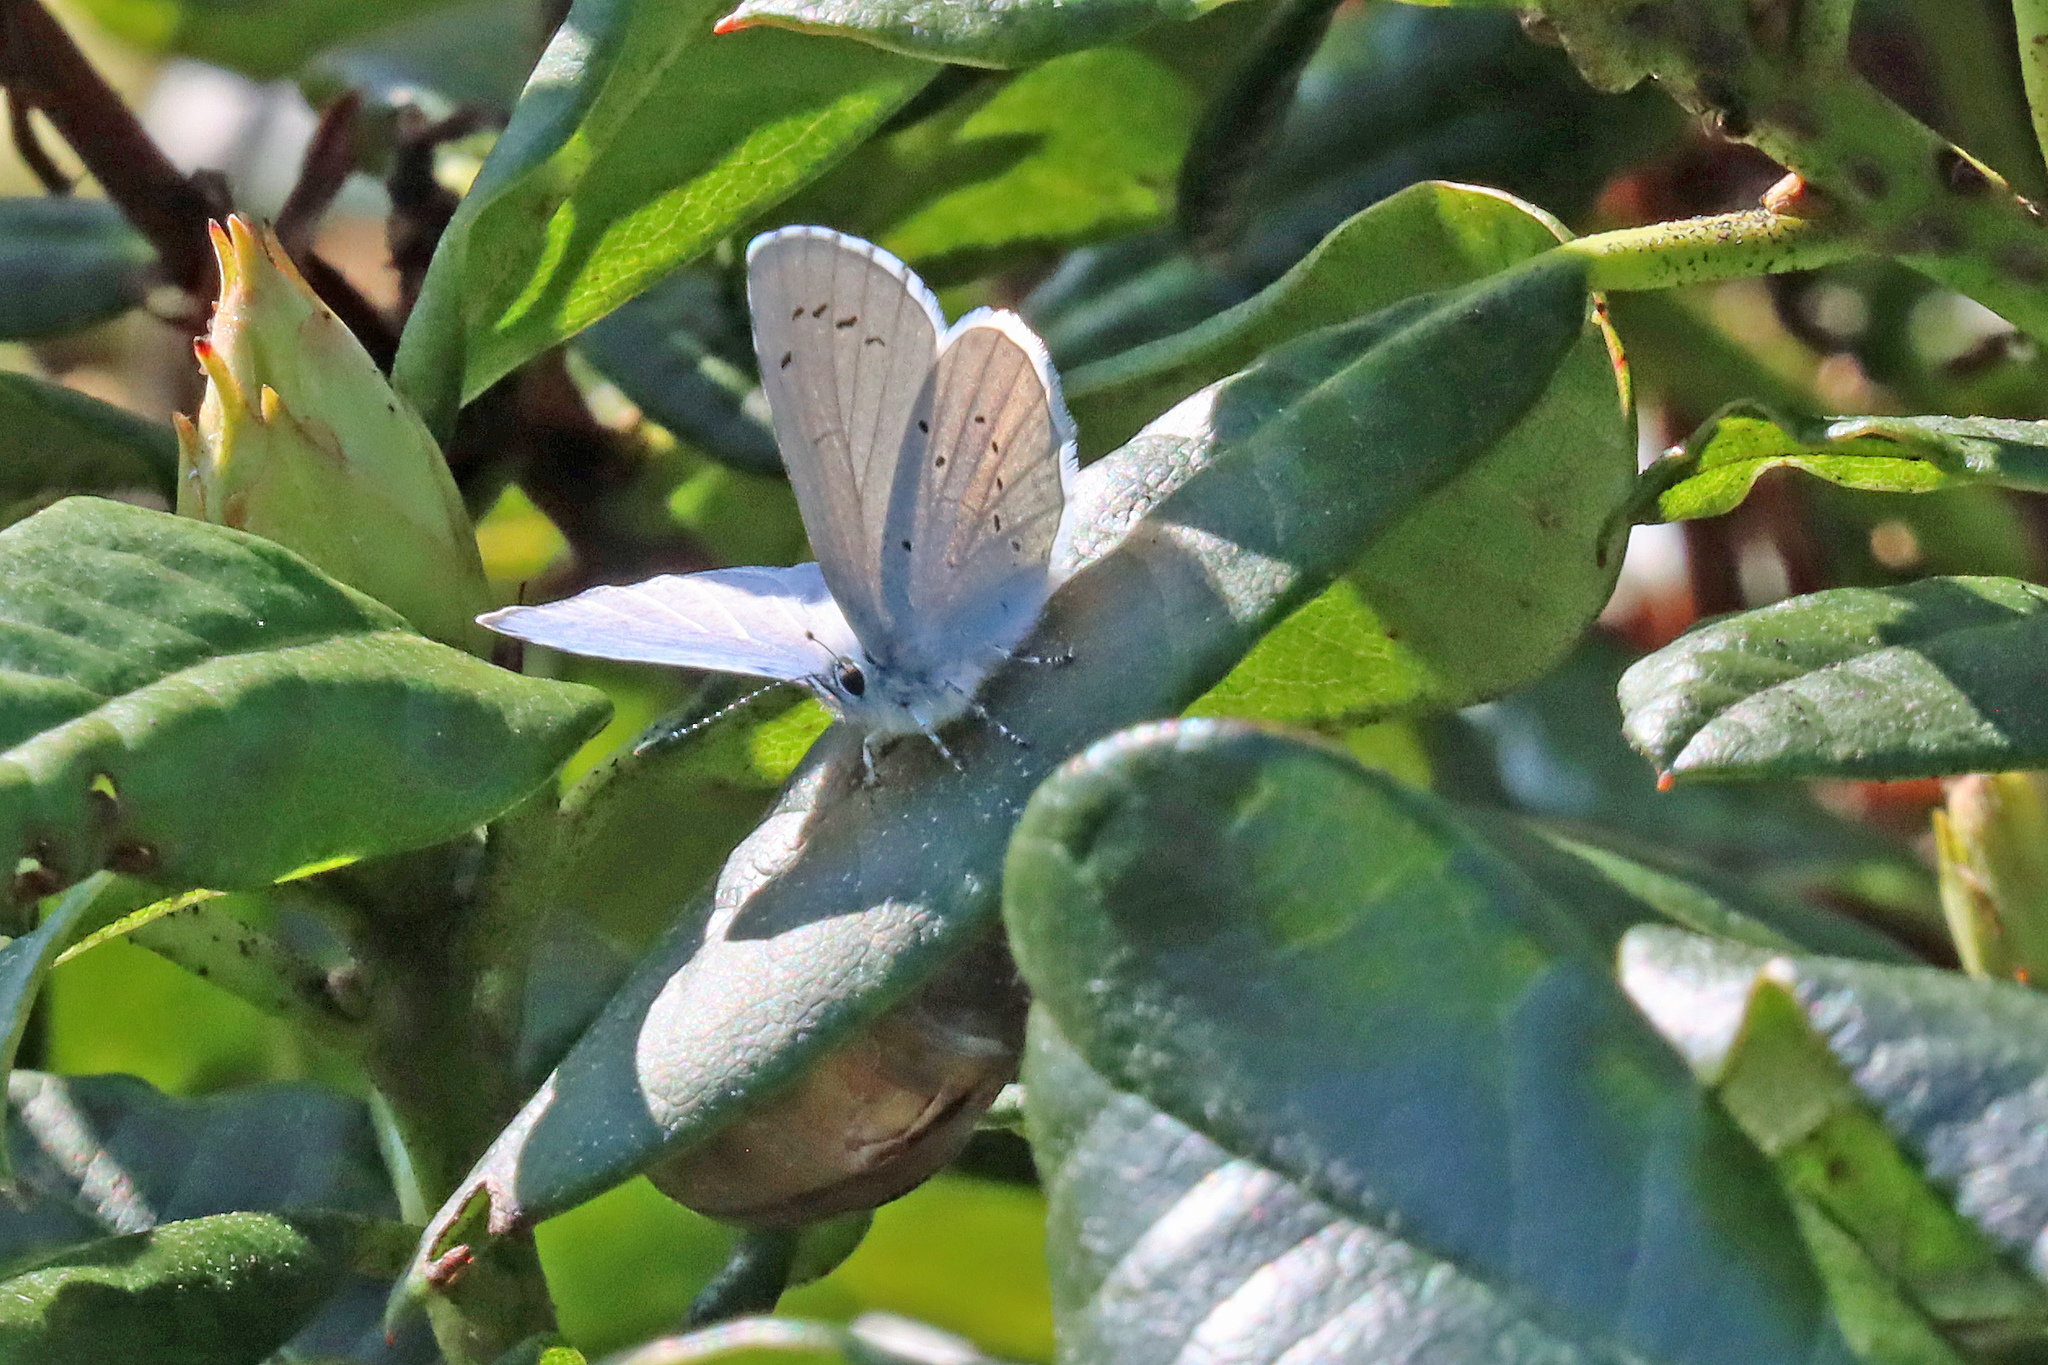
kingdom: Animalia
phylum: Arthropoda
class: Insecta
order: Lepidoptera
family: Lycaenidae
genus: Celastrina
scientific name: Celastrina argiolus
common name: Holly blue
